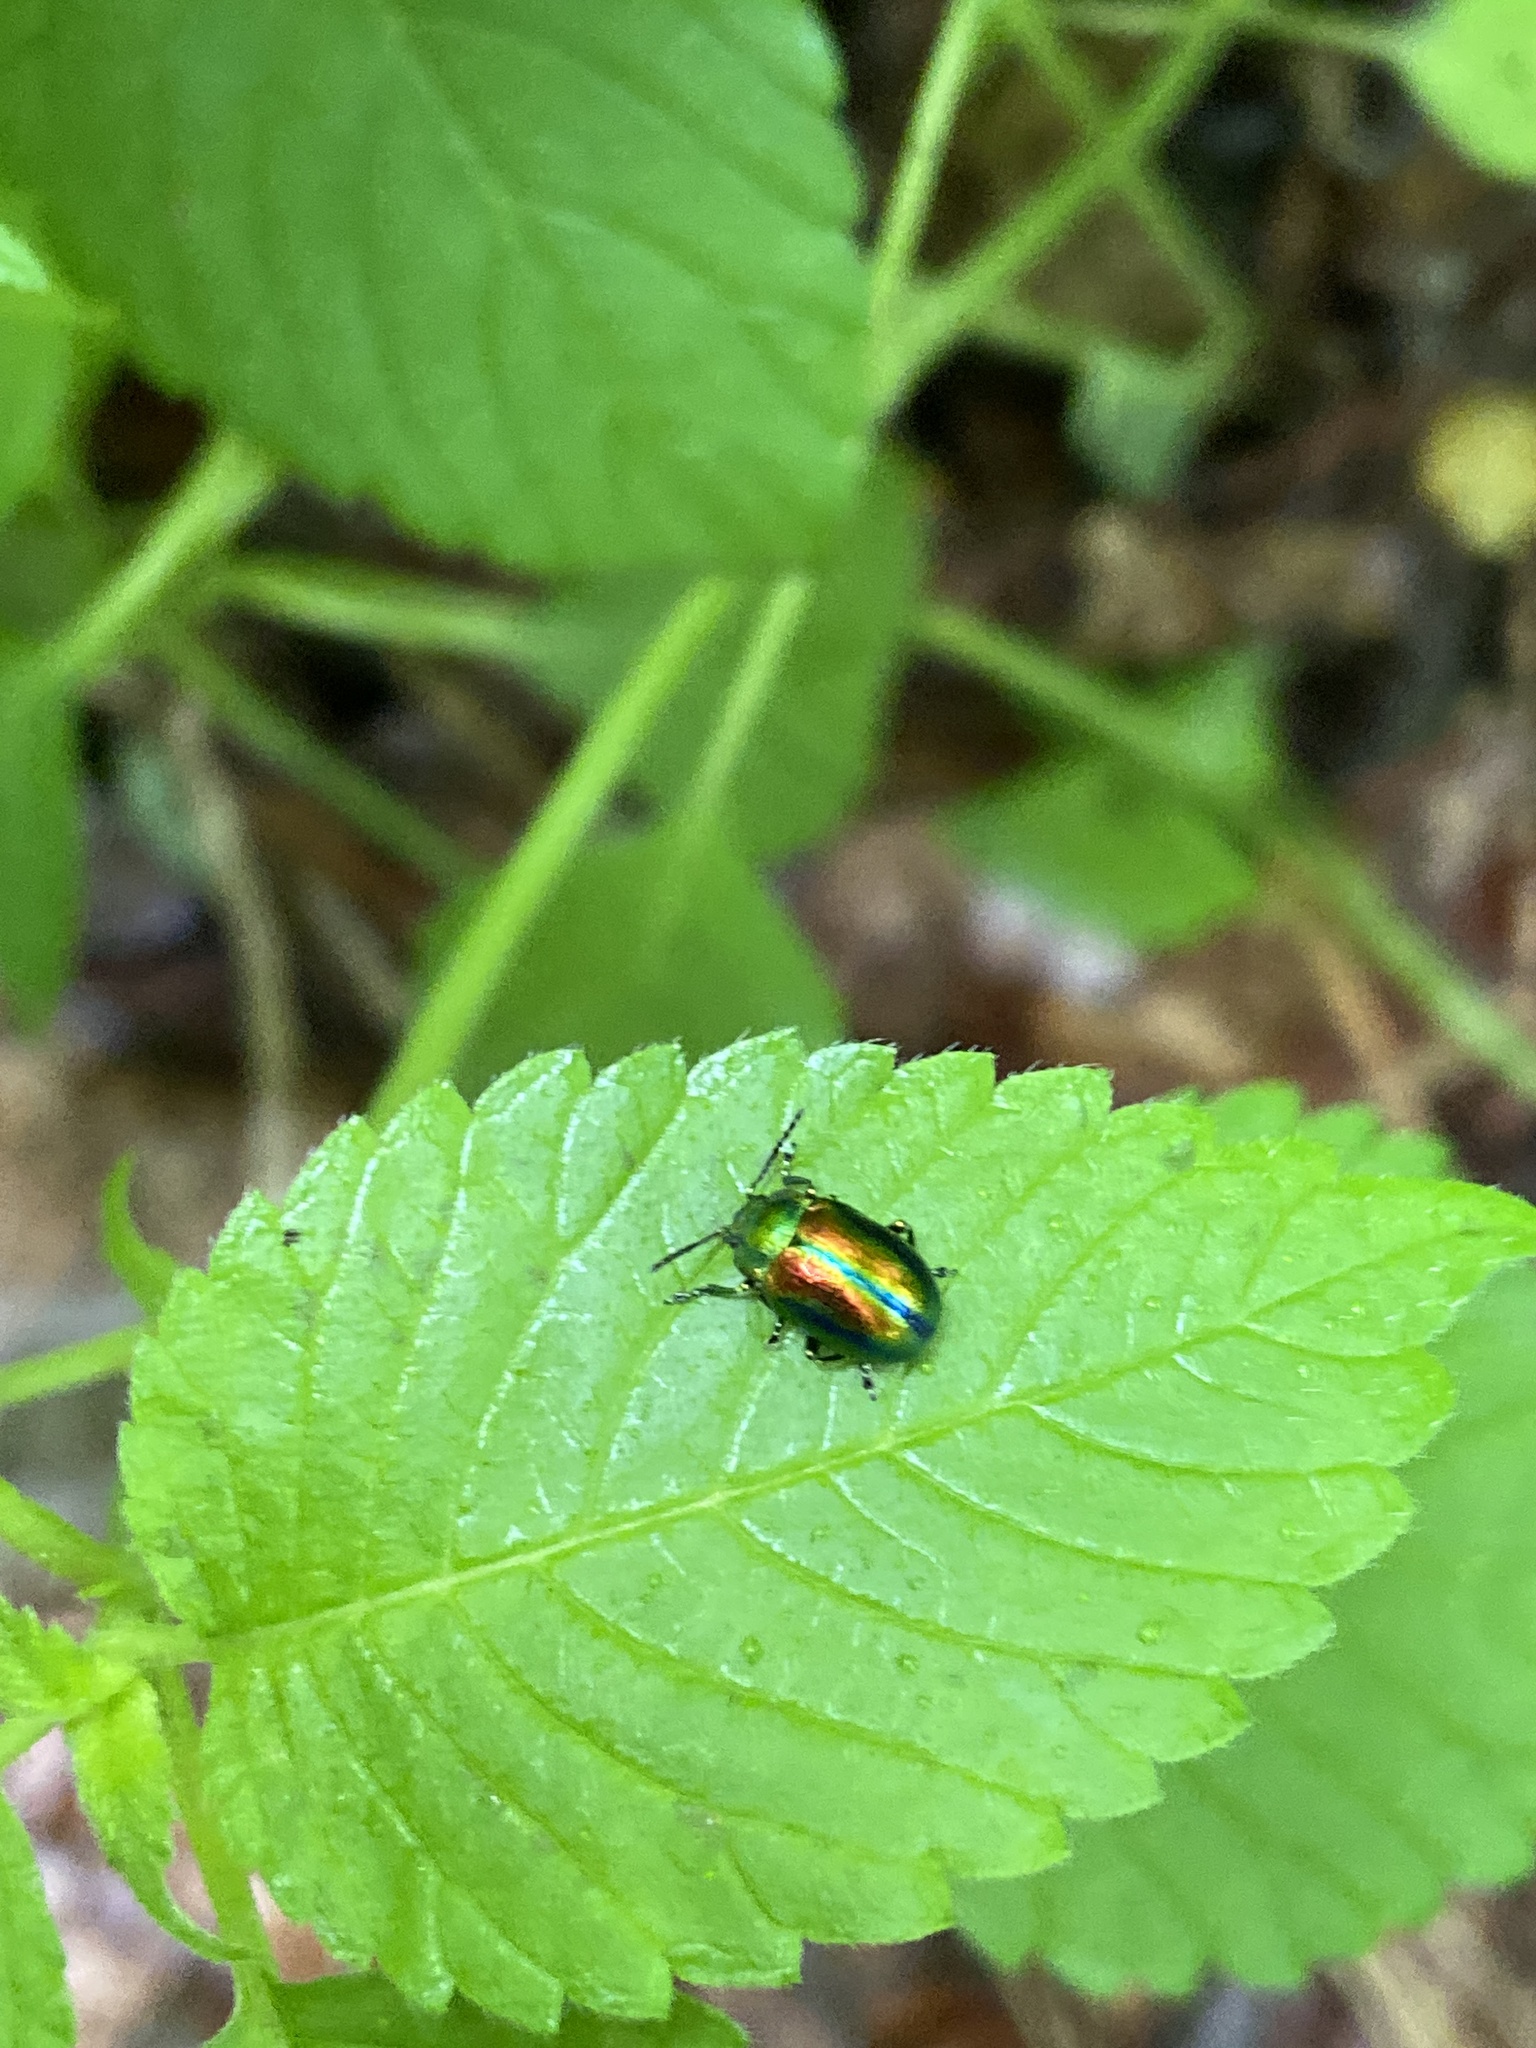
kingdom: Animalia
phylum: Arthropoda
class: Insecta
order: Coleoptera
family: Chrysomelidae
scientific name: Chrysomelidae
